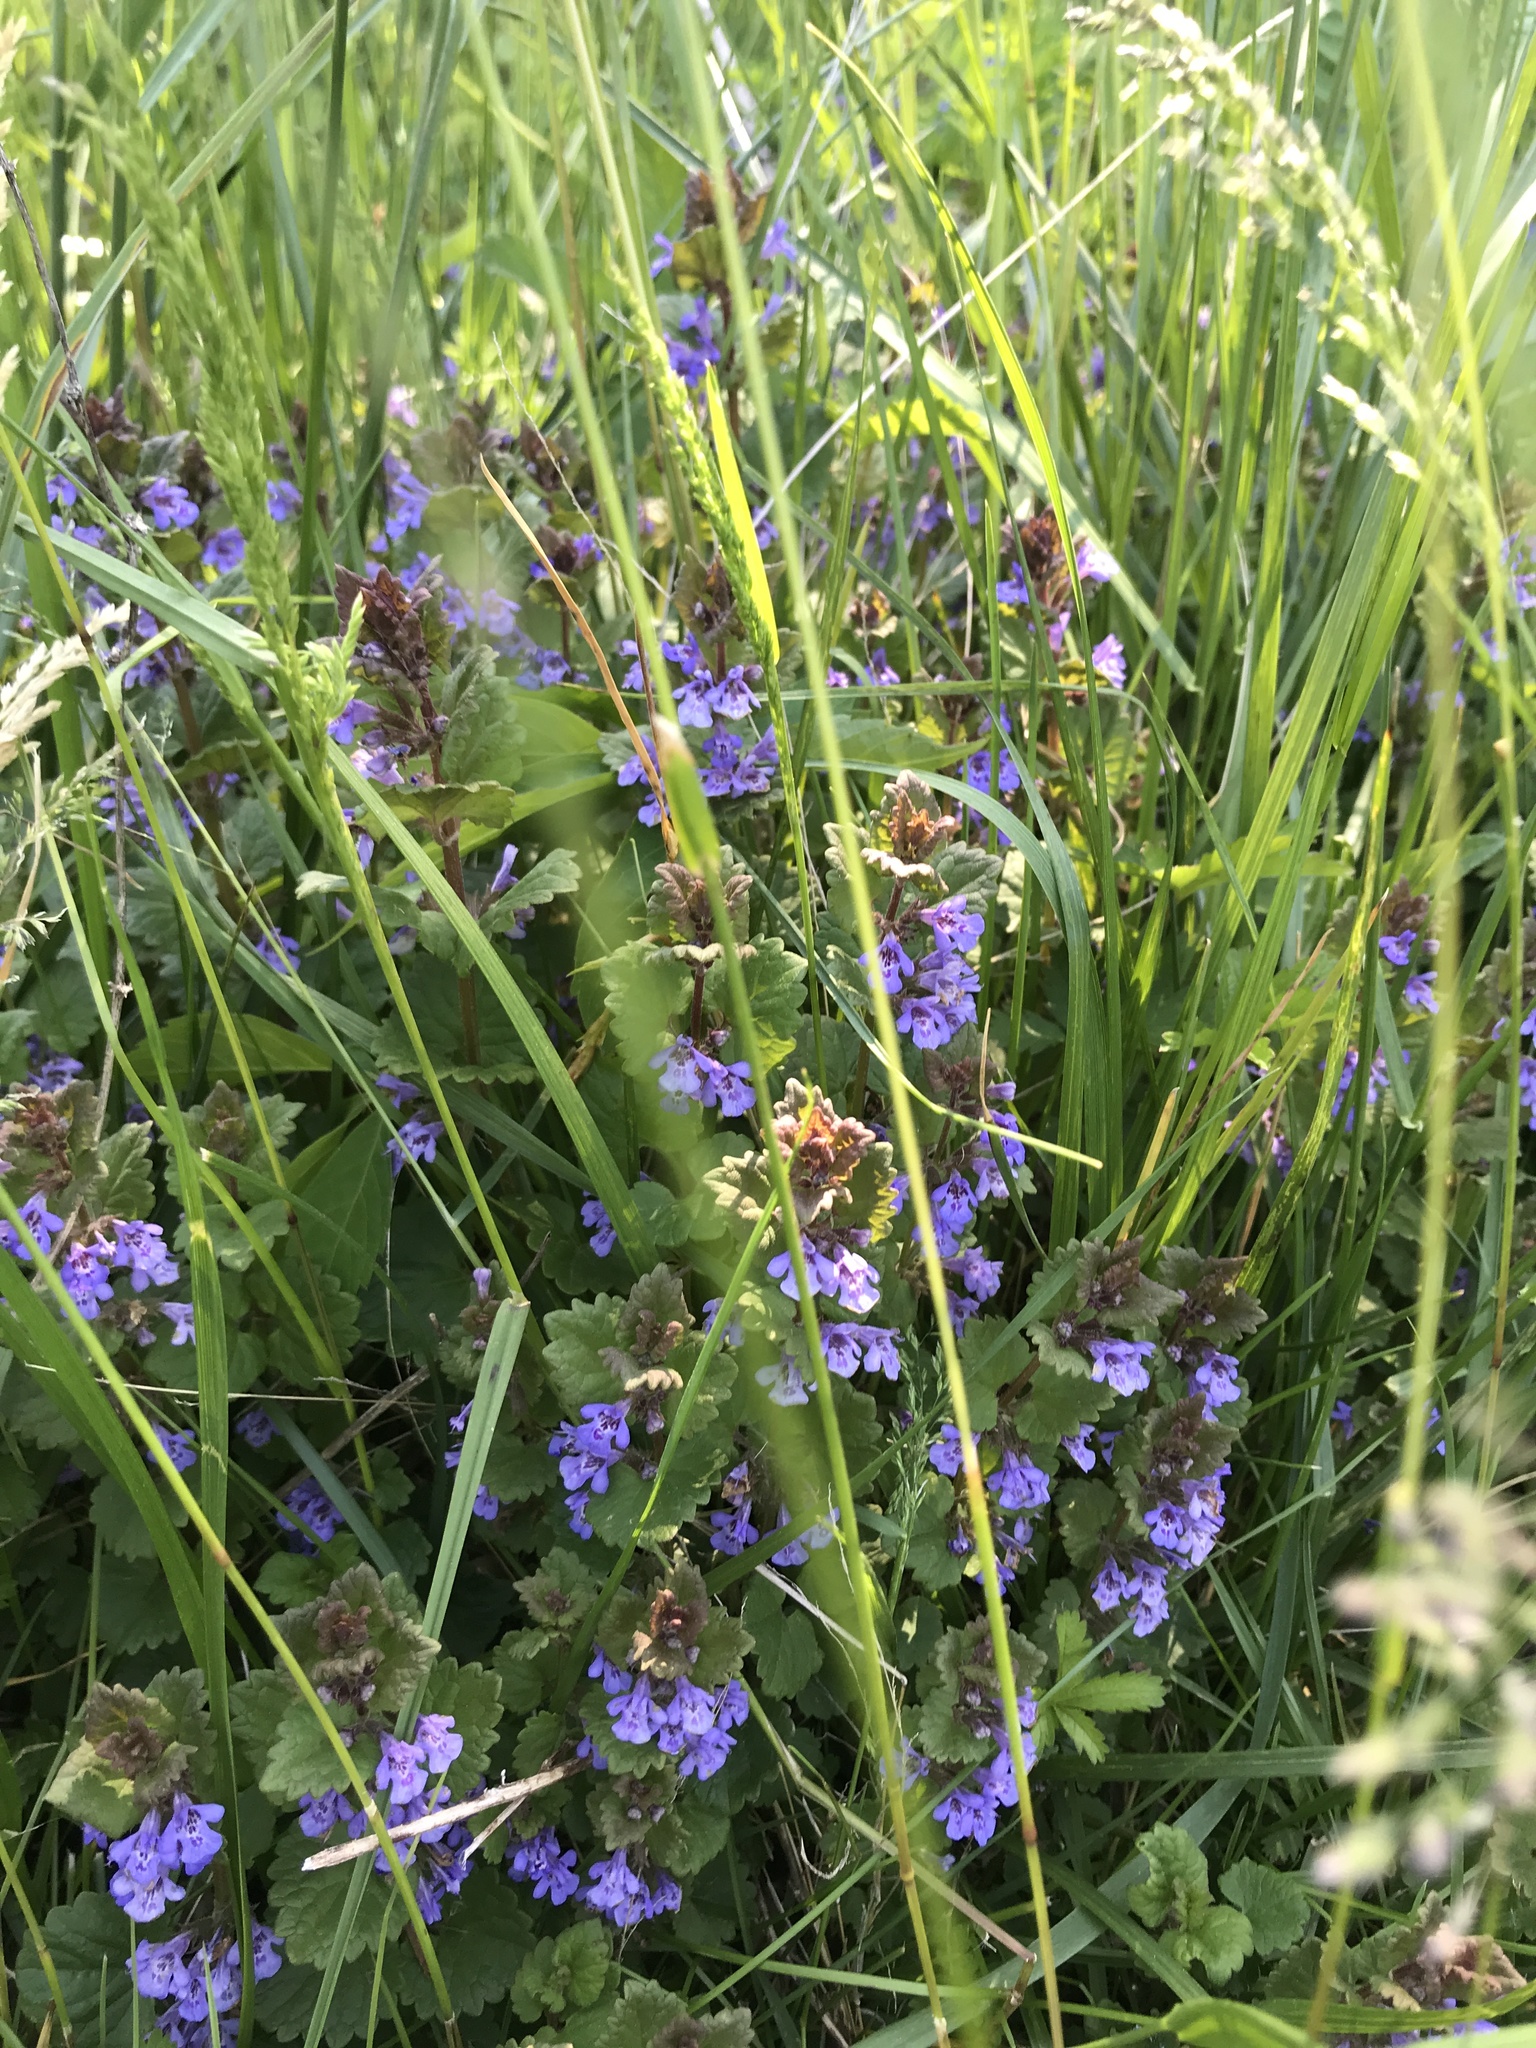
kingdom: Plantae
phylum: Tracheophyta
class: Magnoliopsida
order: Lamiales
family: Lamiaceae
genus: Glechoma
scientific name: Glechoma hederacea
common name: Ground ivy
